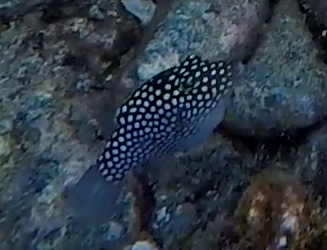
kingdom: Animalia
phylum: Chordata
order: Tetraodontiformes
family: Tetraodontidae
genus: Canthigaster
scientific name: Canthigaster jactator
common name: Hawaiian whitespotted toby
